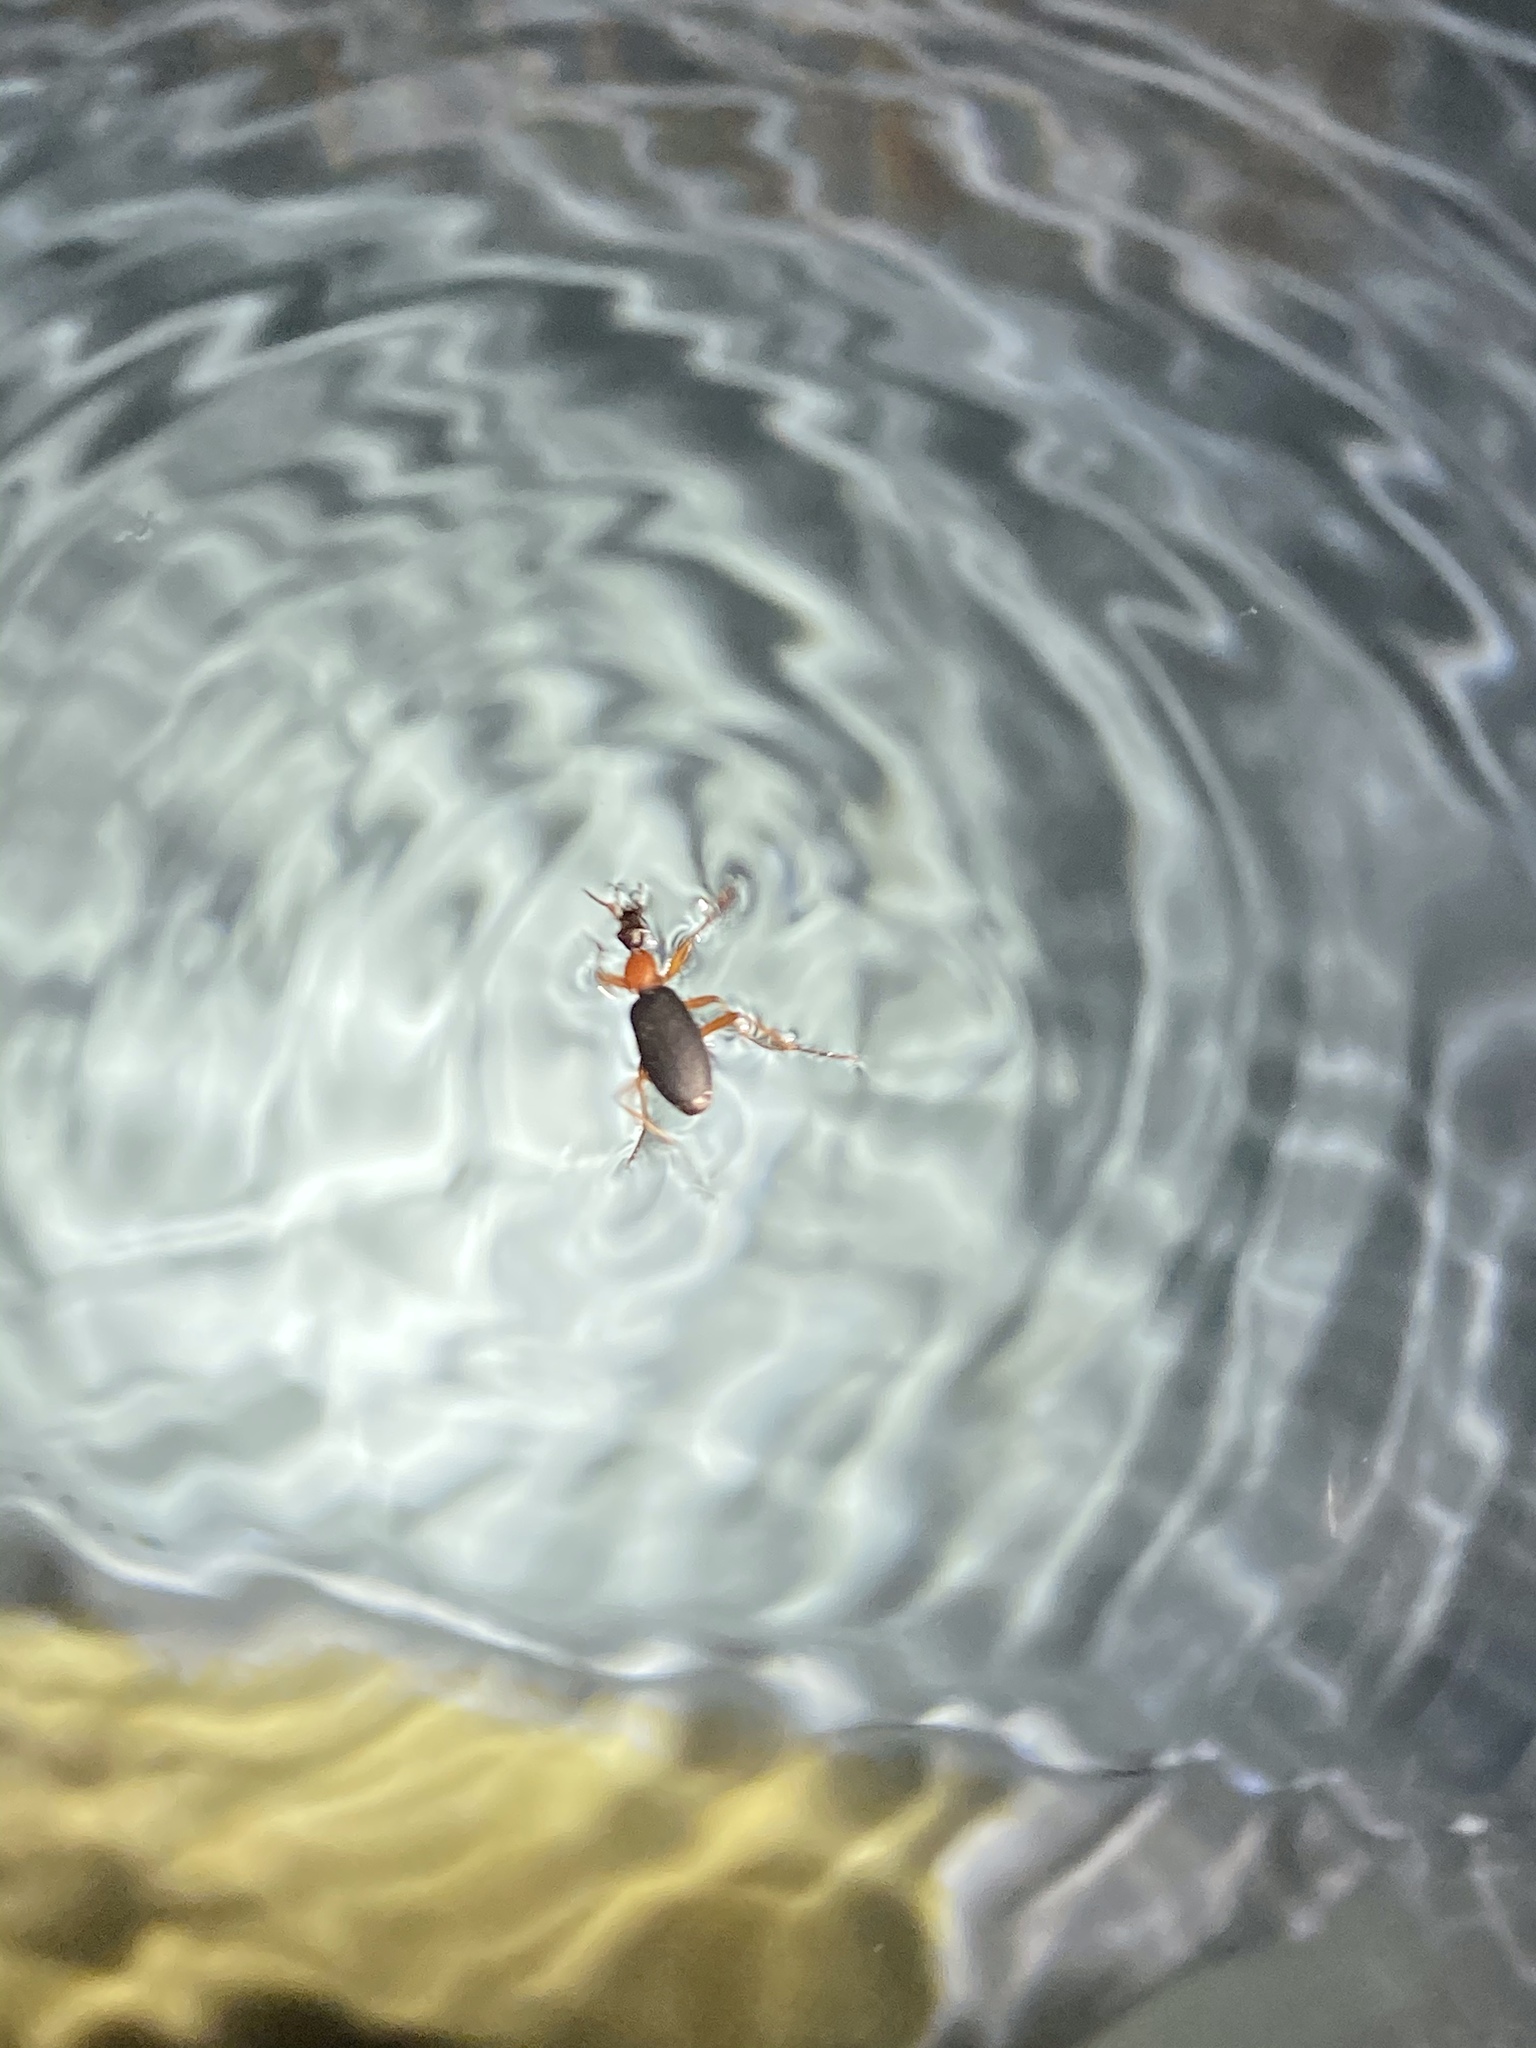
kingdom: Animalia
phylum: Arthropoda
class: Insecta
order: Coleoptera
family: Carabidae
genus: Galerita
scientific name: Galerita bicolor
